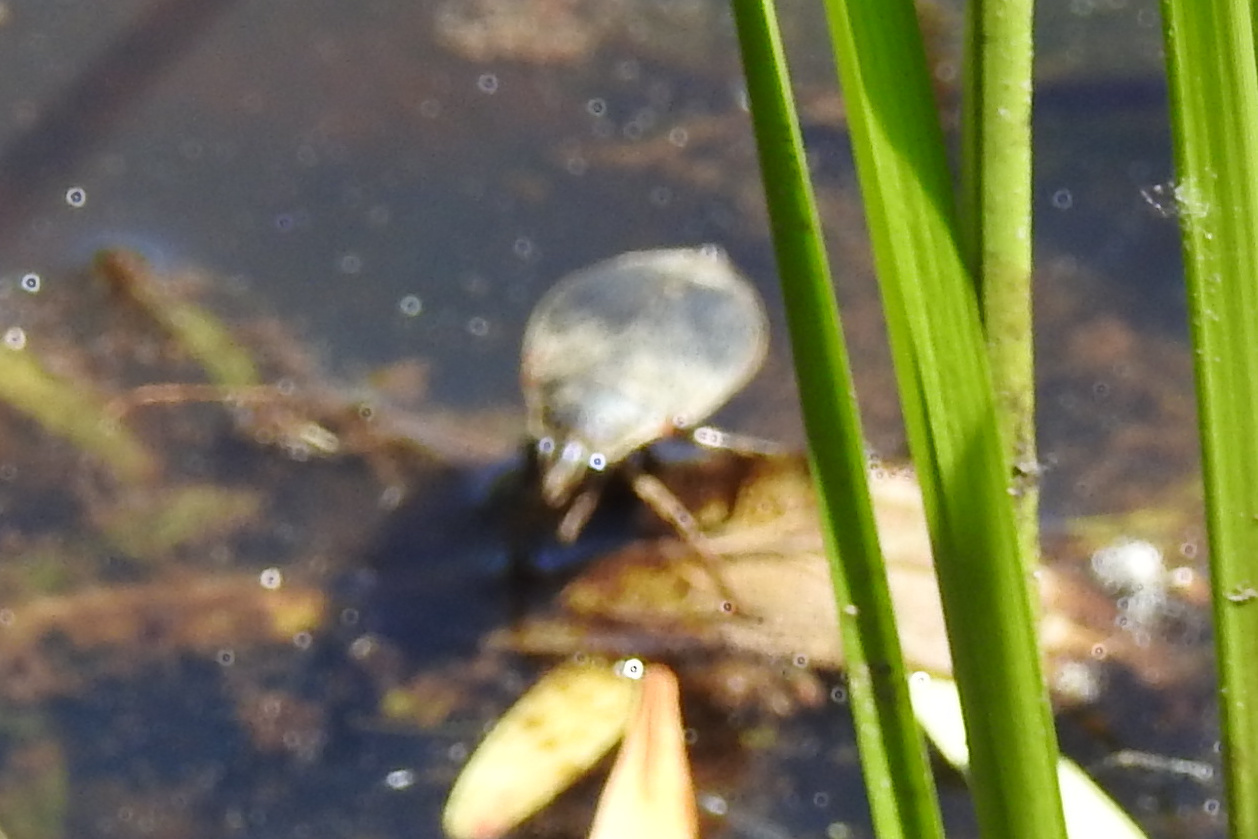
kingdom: Animalia
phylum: Arthropoda
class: Insecta
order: Hemiptera
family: Belostomatidae
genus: Belostoma
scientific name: Belostoma
